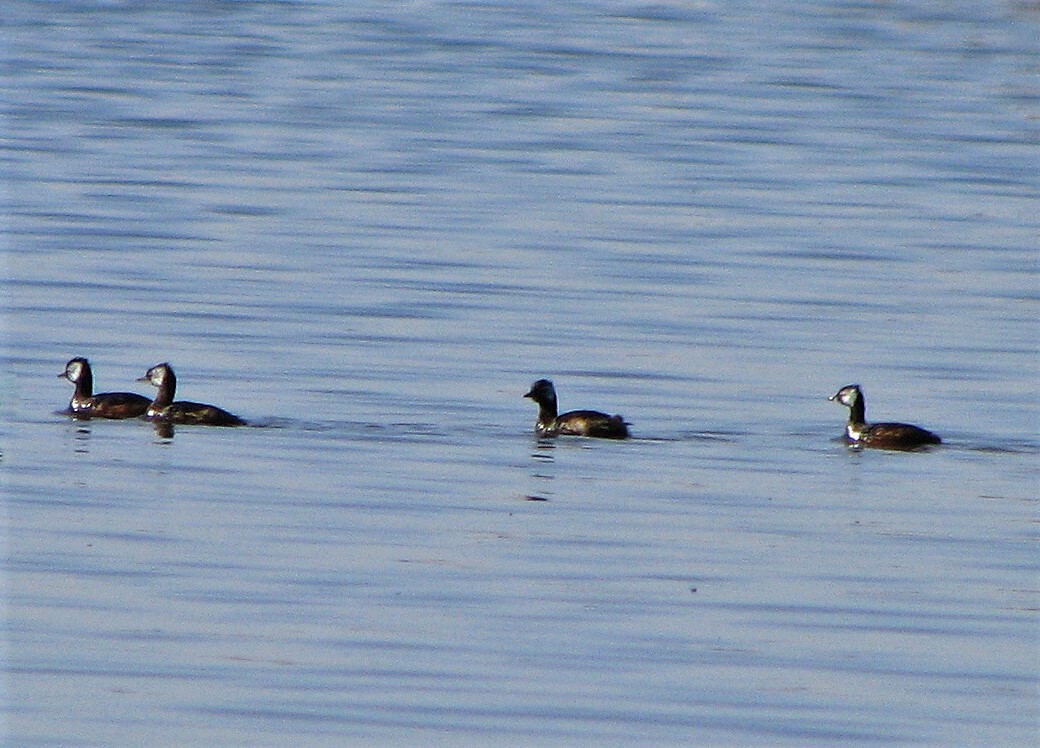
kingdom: Animalia
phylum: Chordata
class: Aves
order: Podicipediformes
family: Podicipedidae
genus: Rollandia
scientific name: Rollandia rolland
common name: White-tufted grebe
